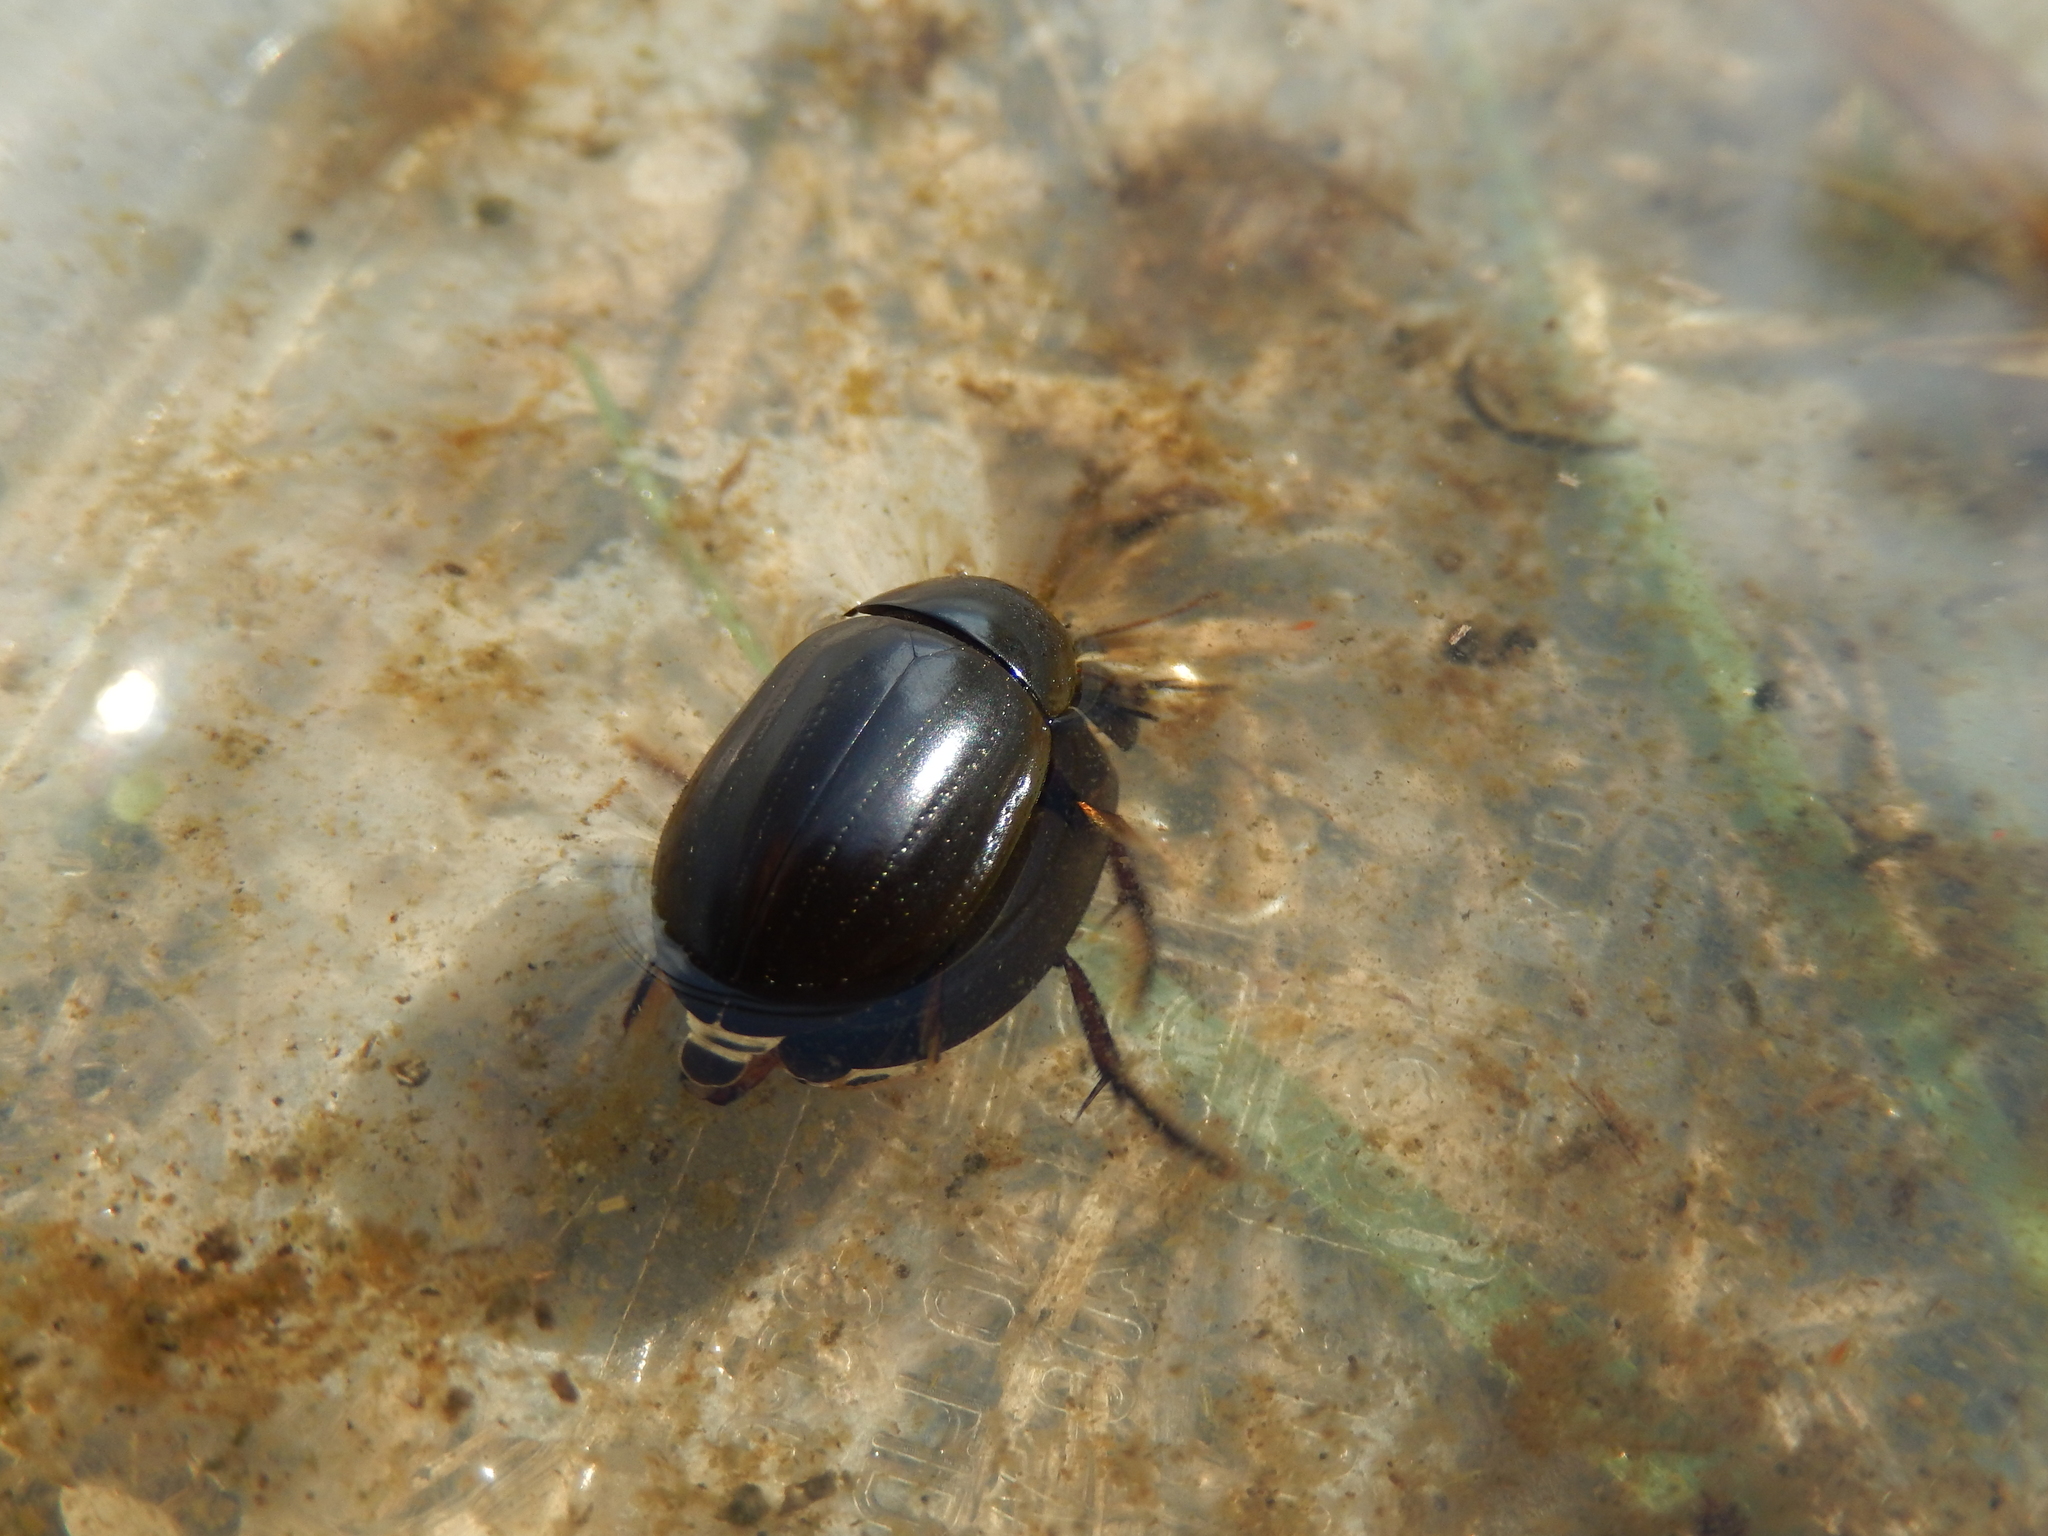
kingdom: Animalia
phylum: Arthropoda
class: Insecta
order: Coleoptera
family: Hydrophilidae
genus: Hydrochara
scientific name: Hydrochara caraboides
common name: Lesser silver water beetle
